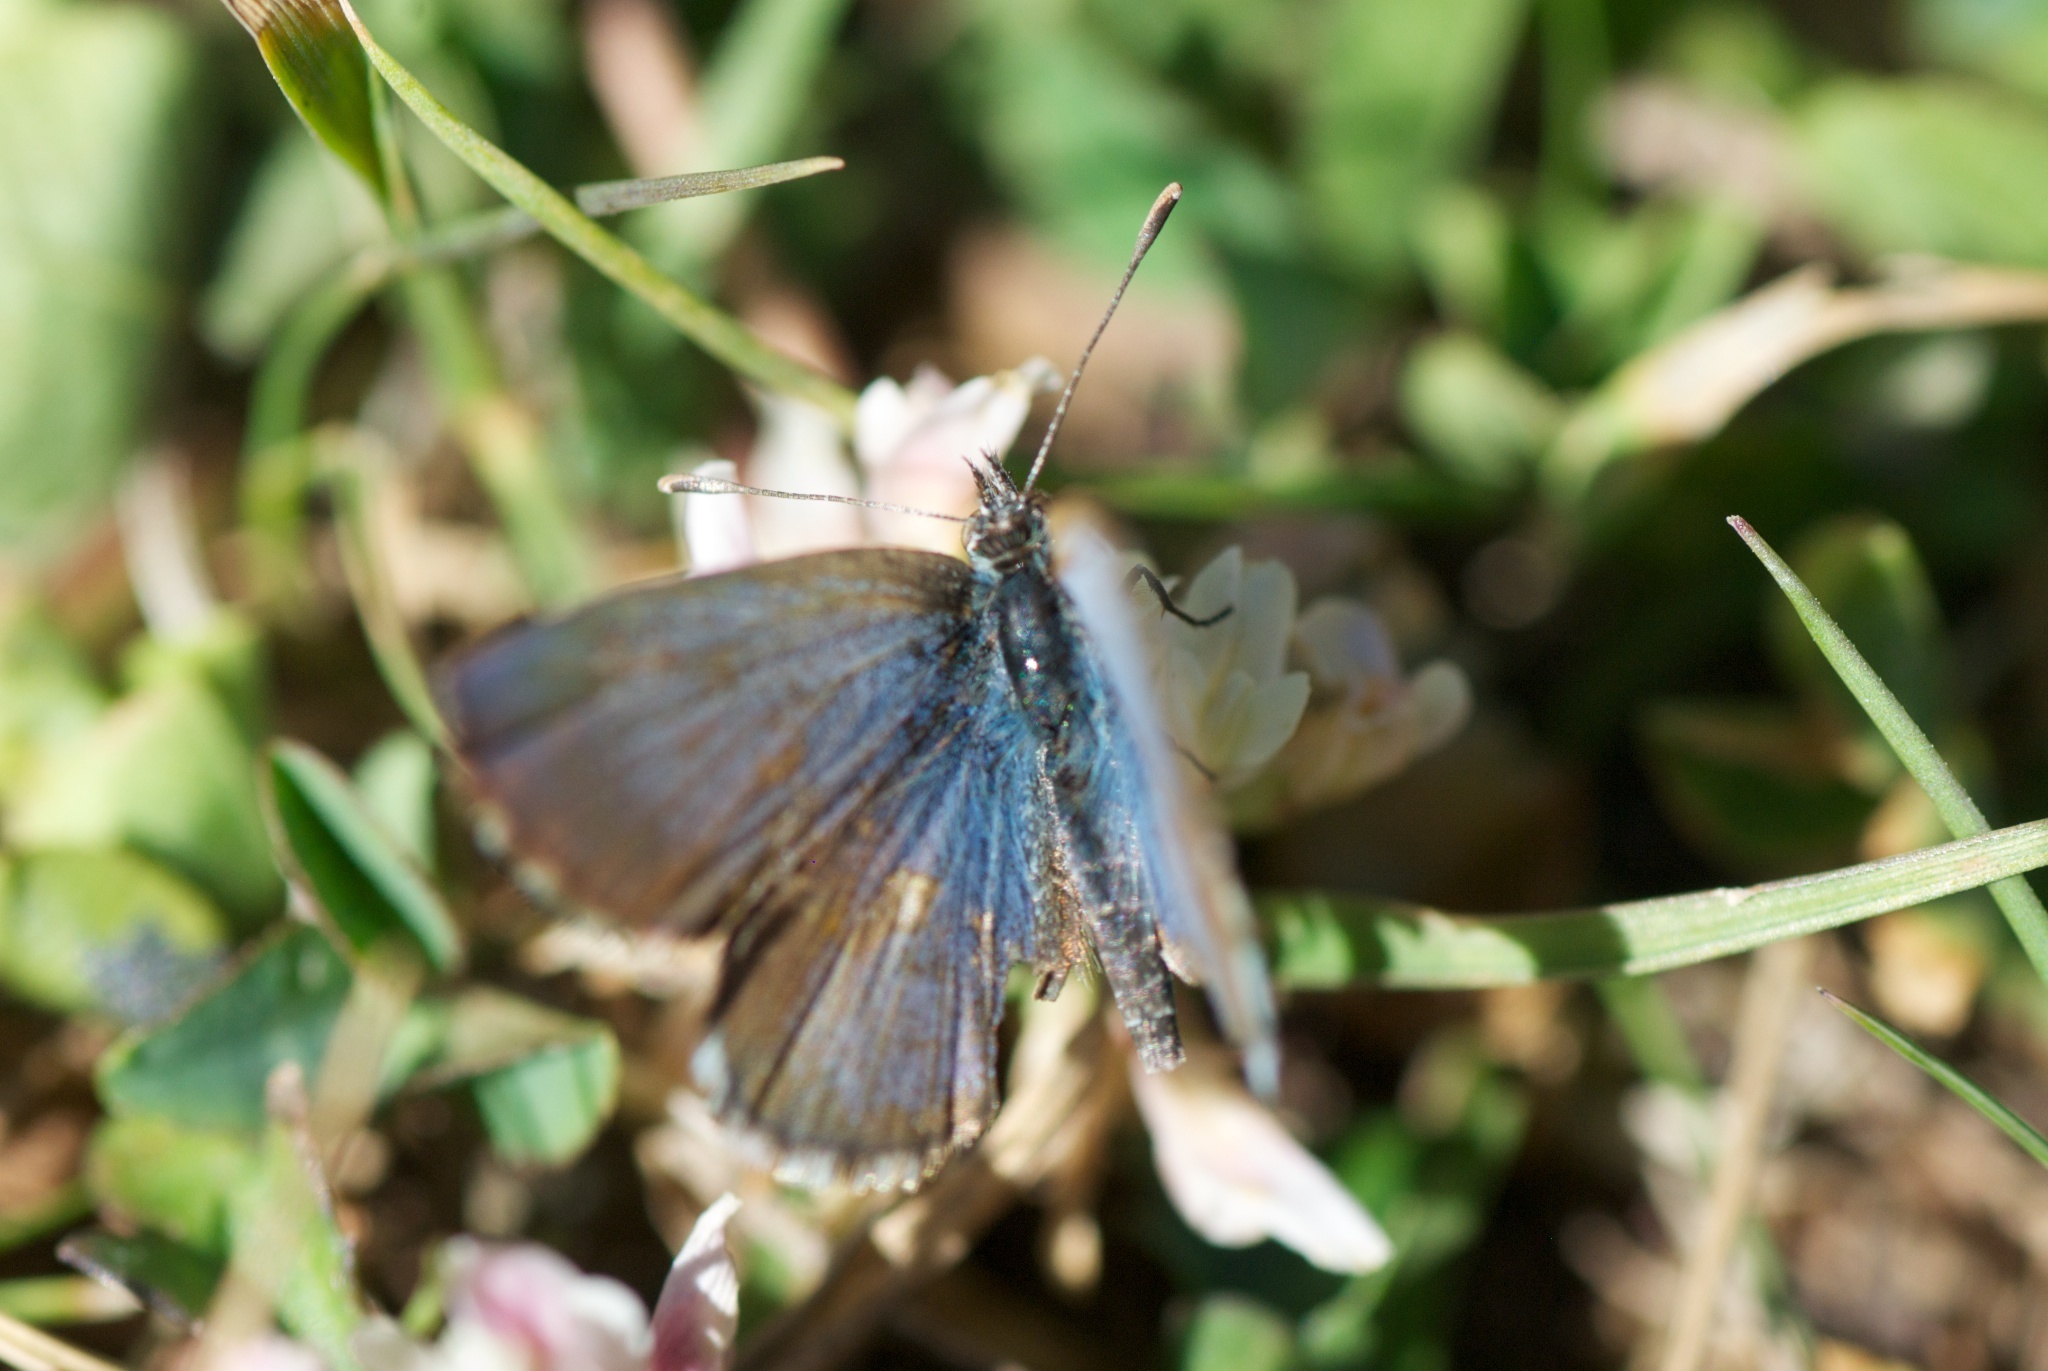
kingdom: Animalia
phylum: Arthropoda
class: Insecta
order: Lepidoptera
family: Lycaenidae
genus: Zizina
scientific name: Zizina oxleyi
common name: Southern blue
